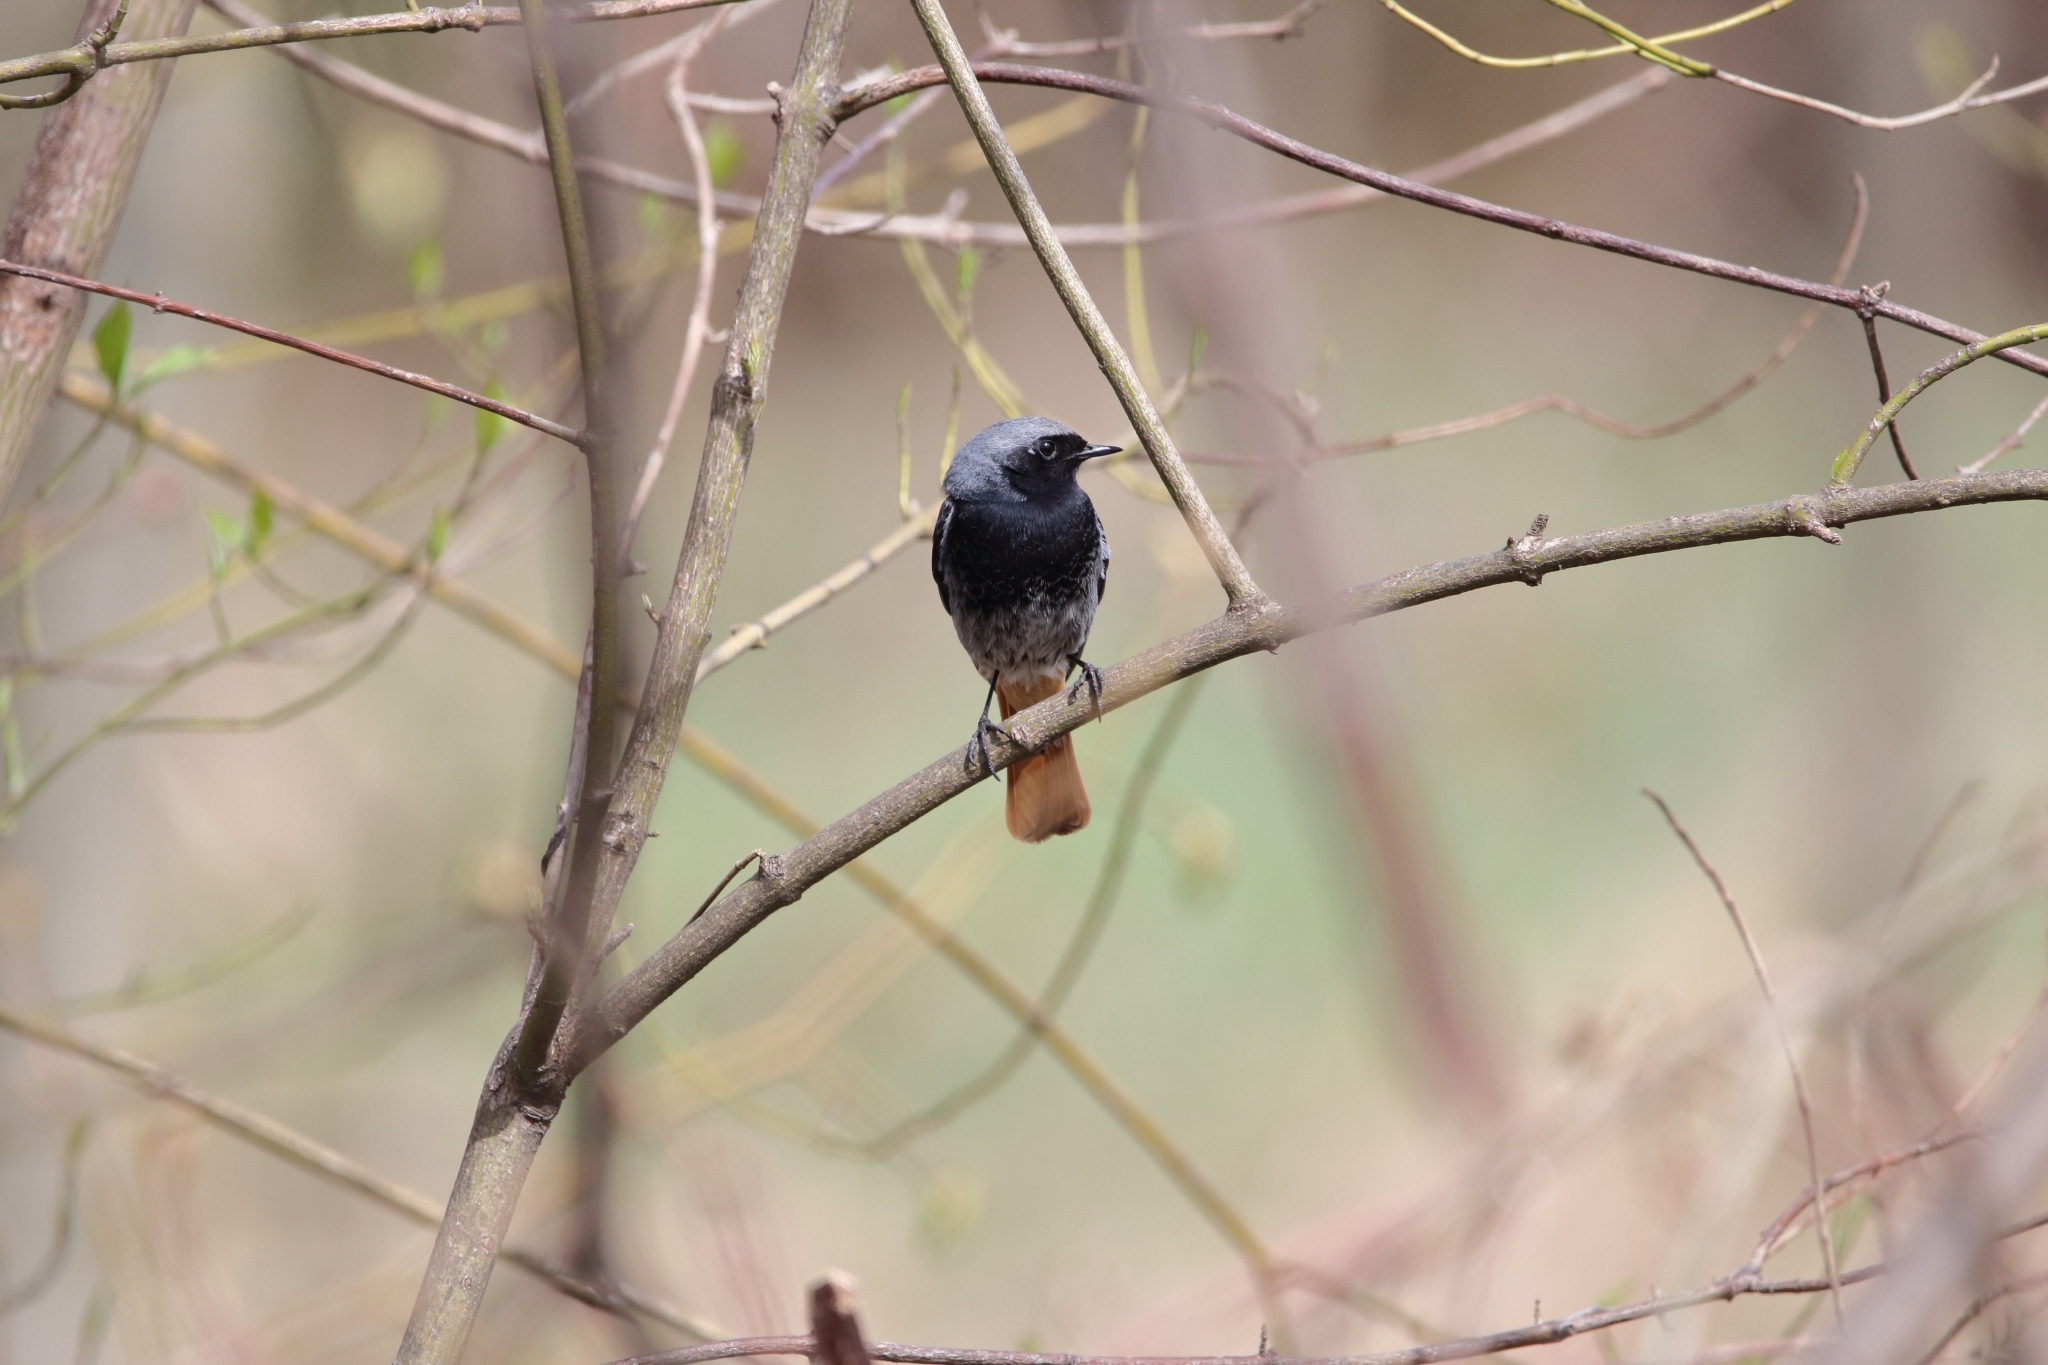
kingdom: Animalia
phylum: Chordata
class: Aves
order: Passeriformes
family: Muscicapidae
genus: Phoenicurus
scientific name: Phoenicurus ochruros
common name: Black redstart
